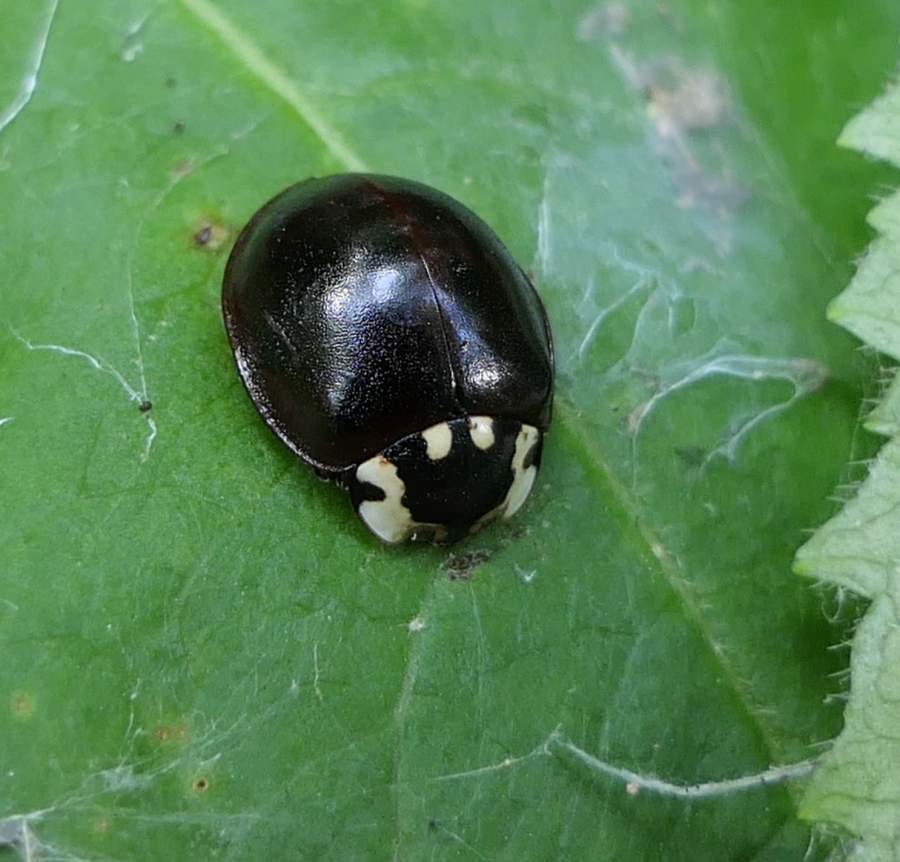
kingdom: Animalia
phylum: Arthropoda
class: Insecta
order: Coleoptera
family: Coccinellidae
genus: Anatis
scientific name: Anatis labiculata
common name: Fifteen-spotted lady beetle
